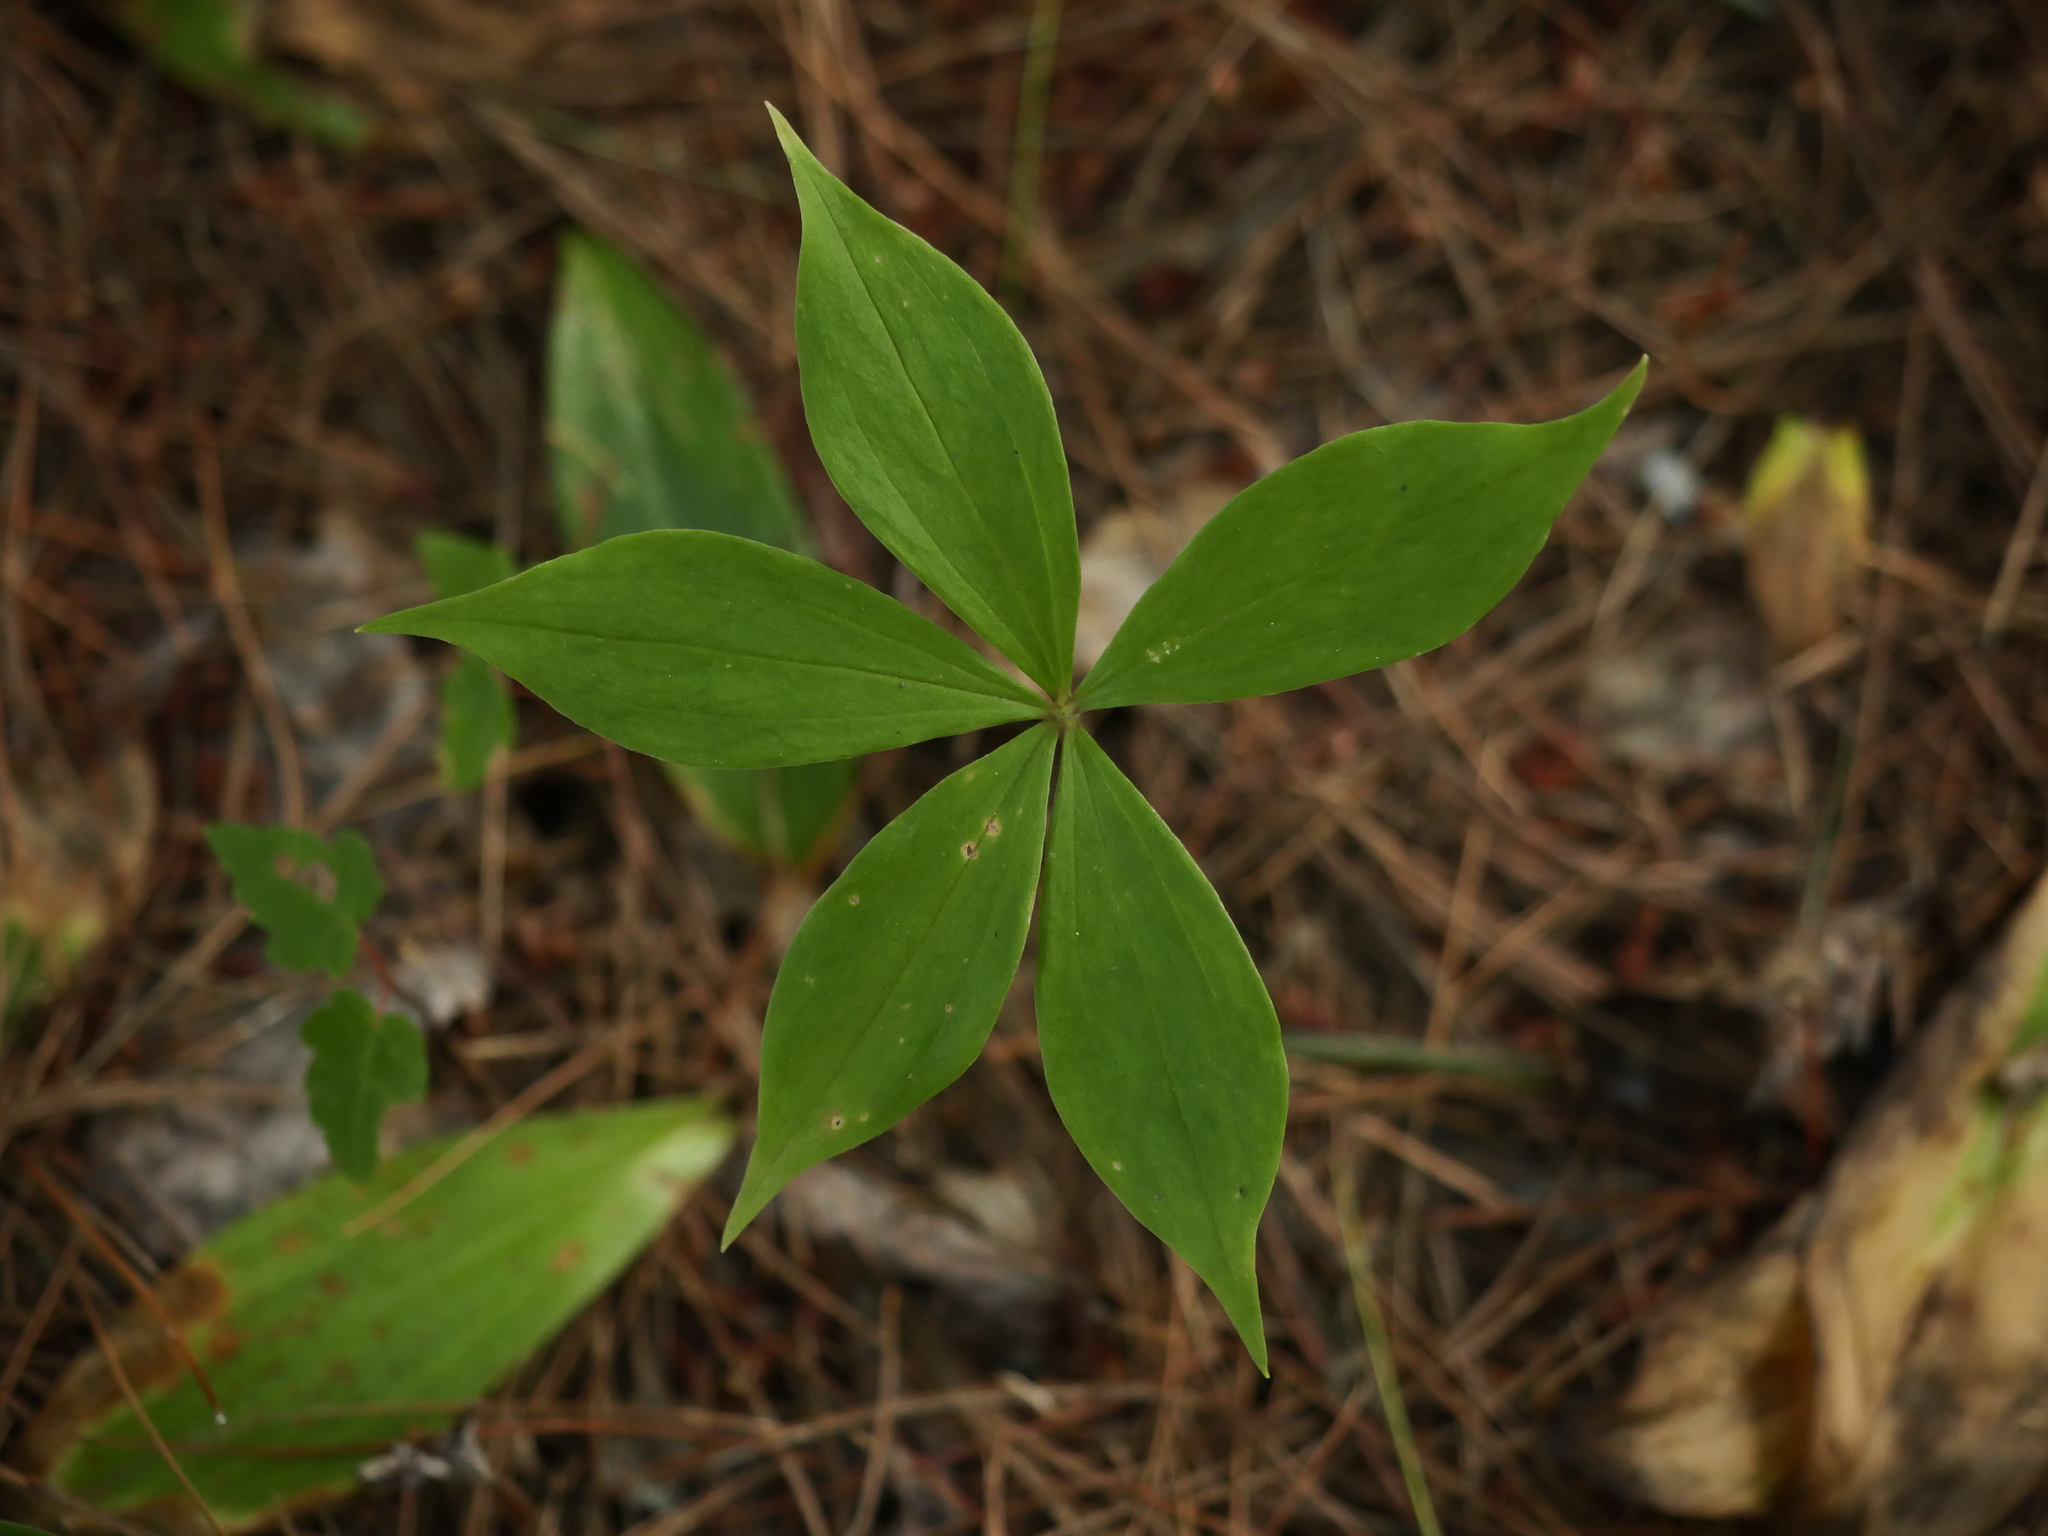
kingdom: Plantae
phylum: Tracheophyta
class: Liliopsida
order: Liliales
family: Liliaceae
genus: Medeola
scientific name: Medeola virginiana
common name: Indian cucumber-root
